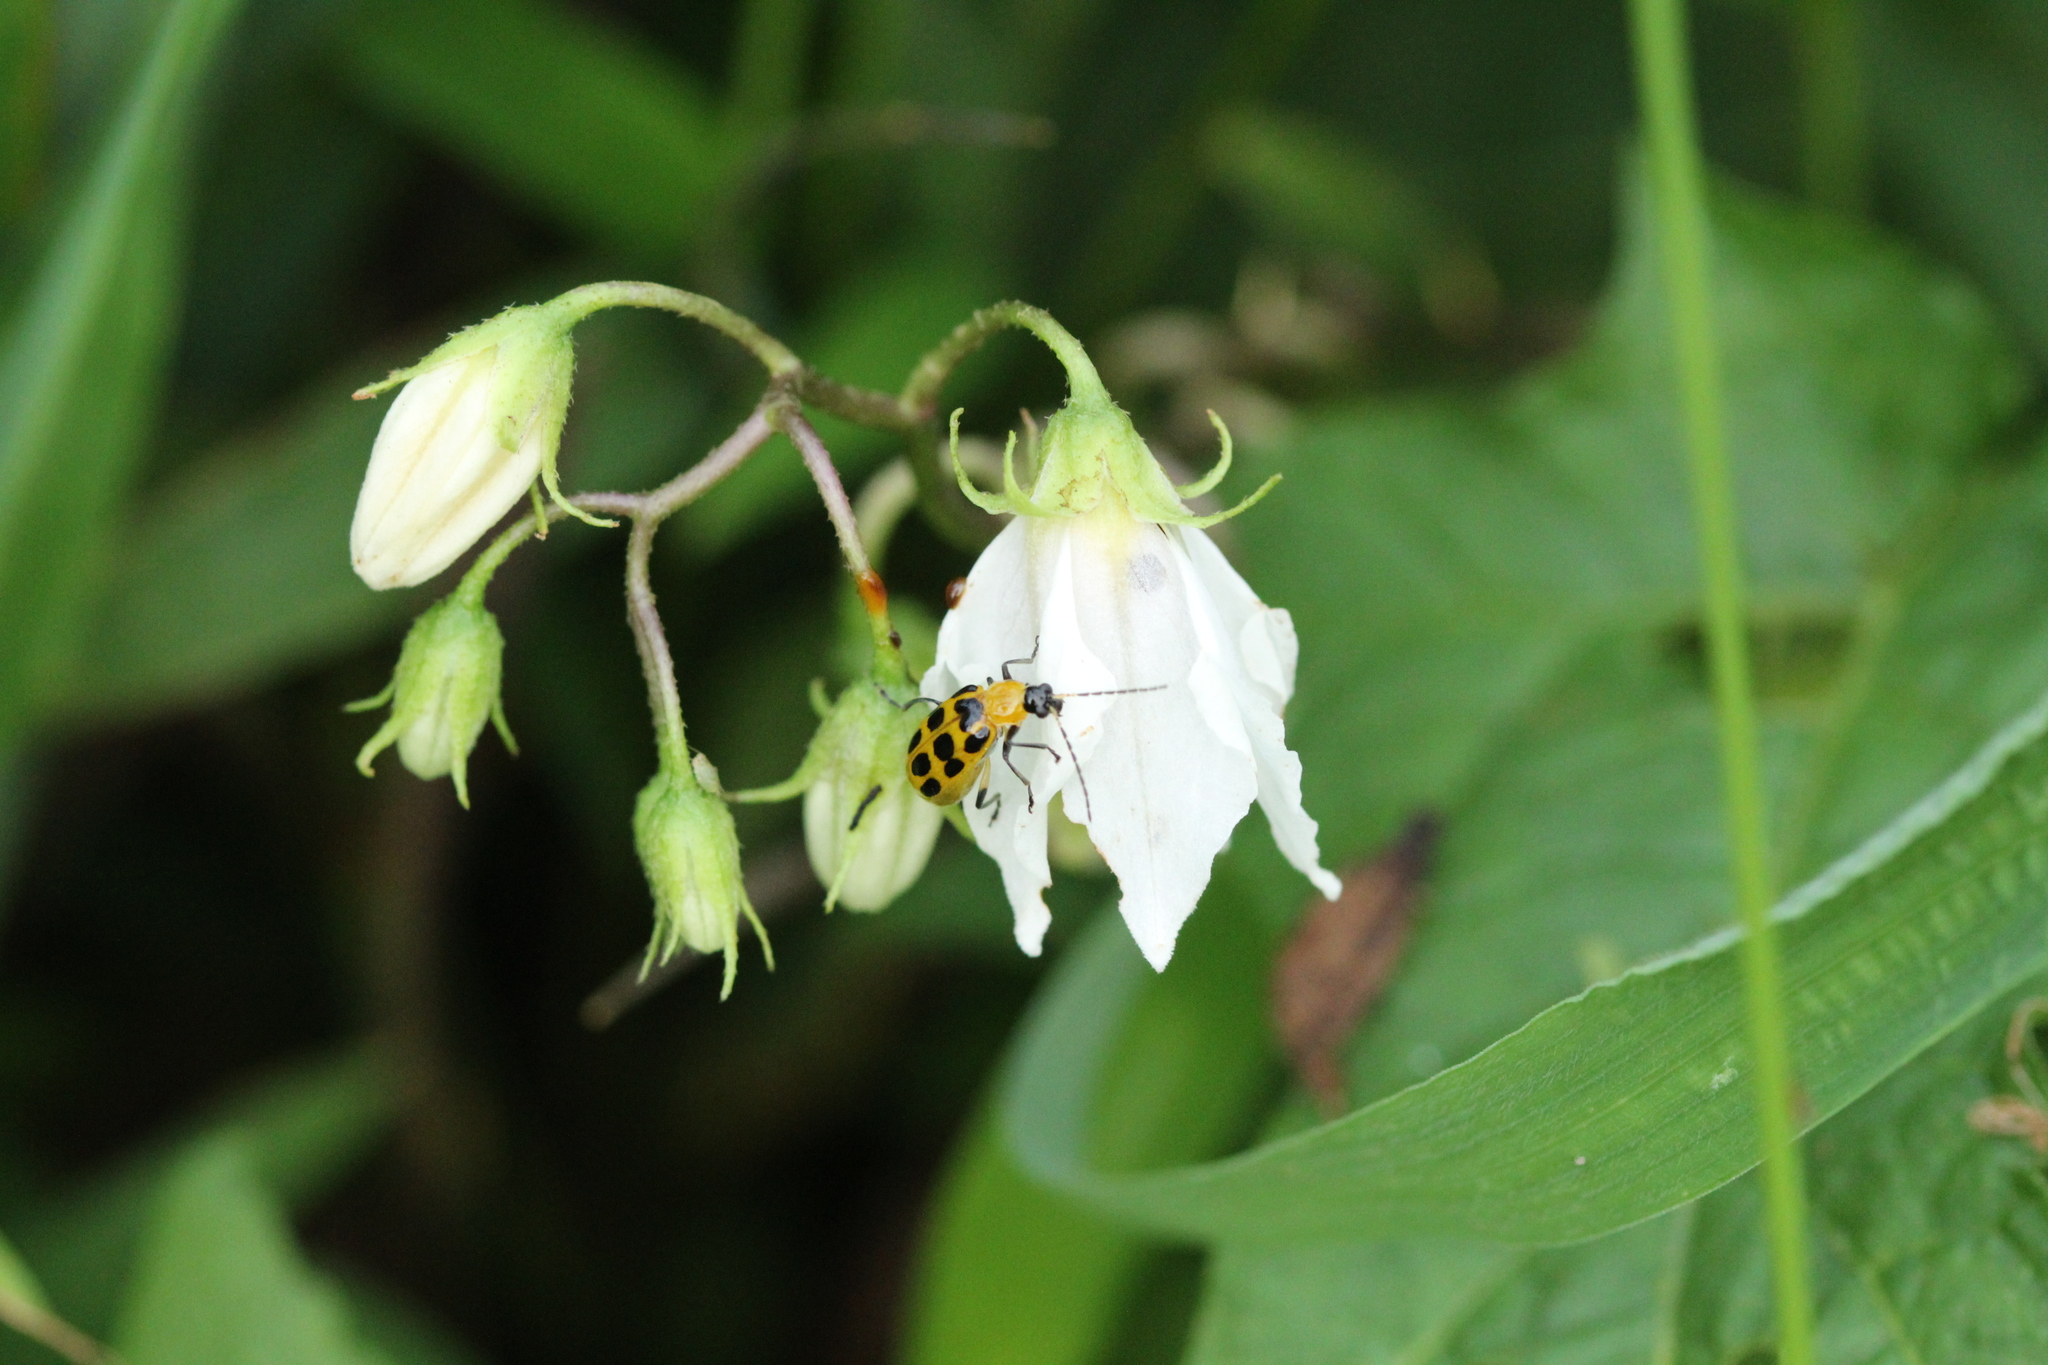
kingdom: Animalia
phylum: Arthropoda
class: Insecta
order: Coleoptera
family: Chrysomelidae
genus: Diabrotica
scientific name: Diabrotica undecimpunctata
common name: Spotted cucumber beetle
